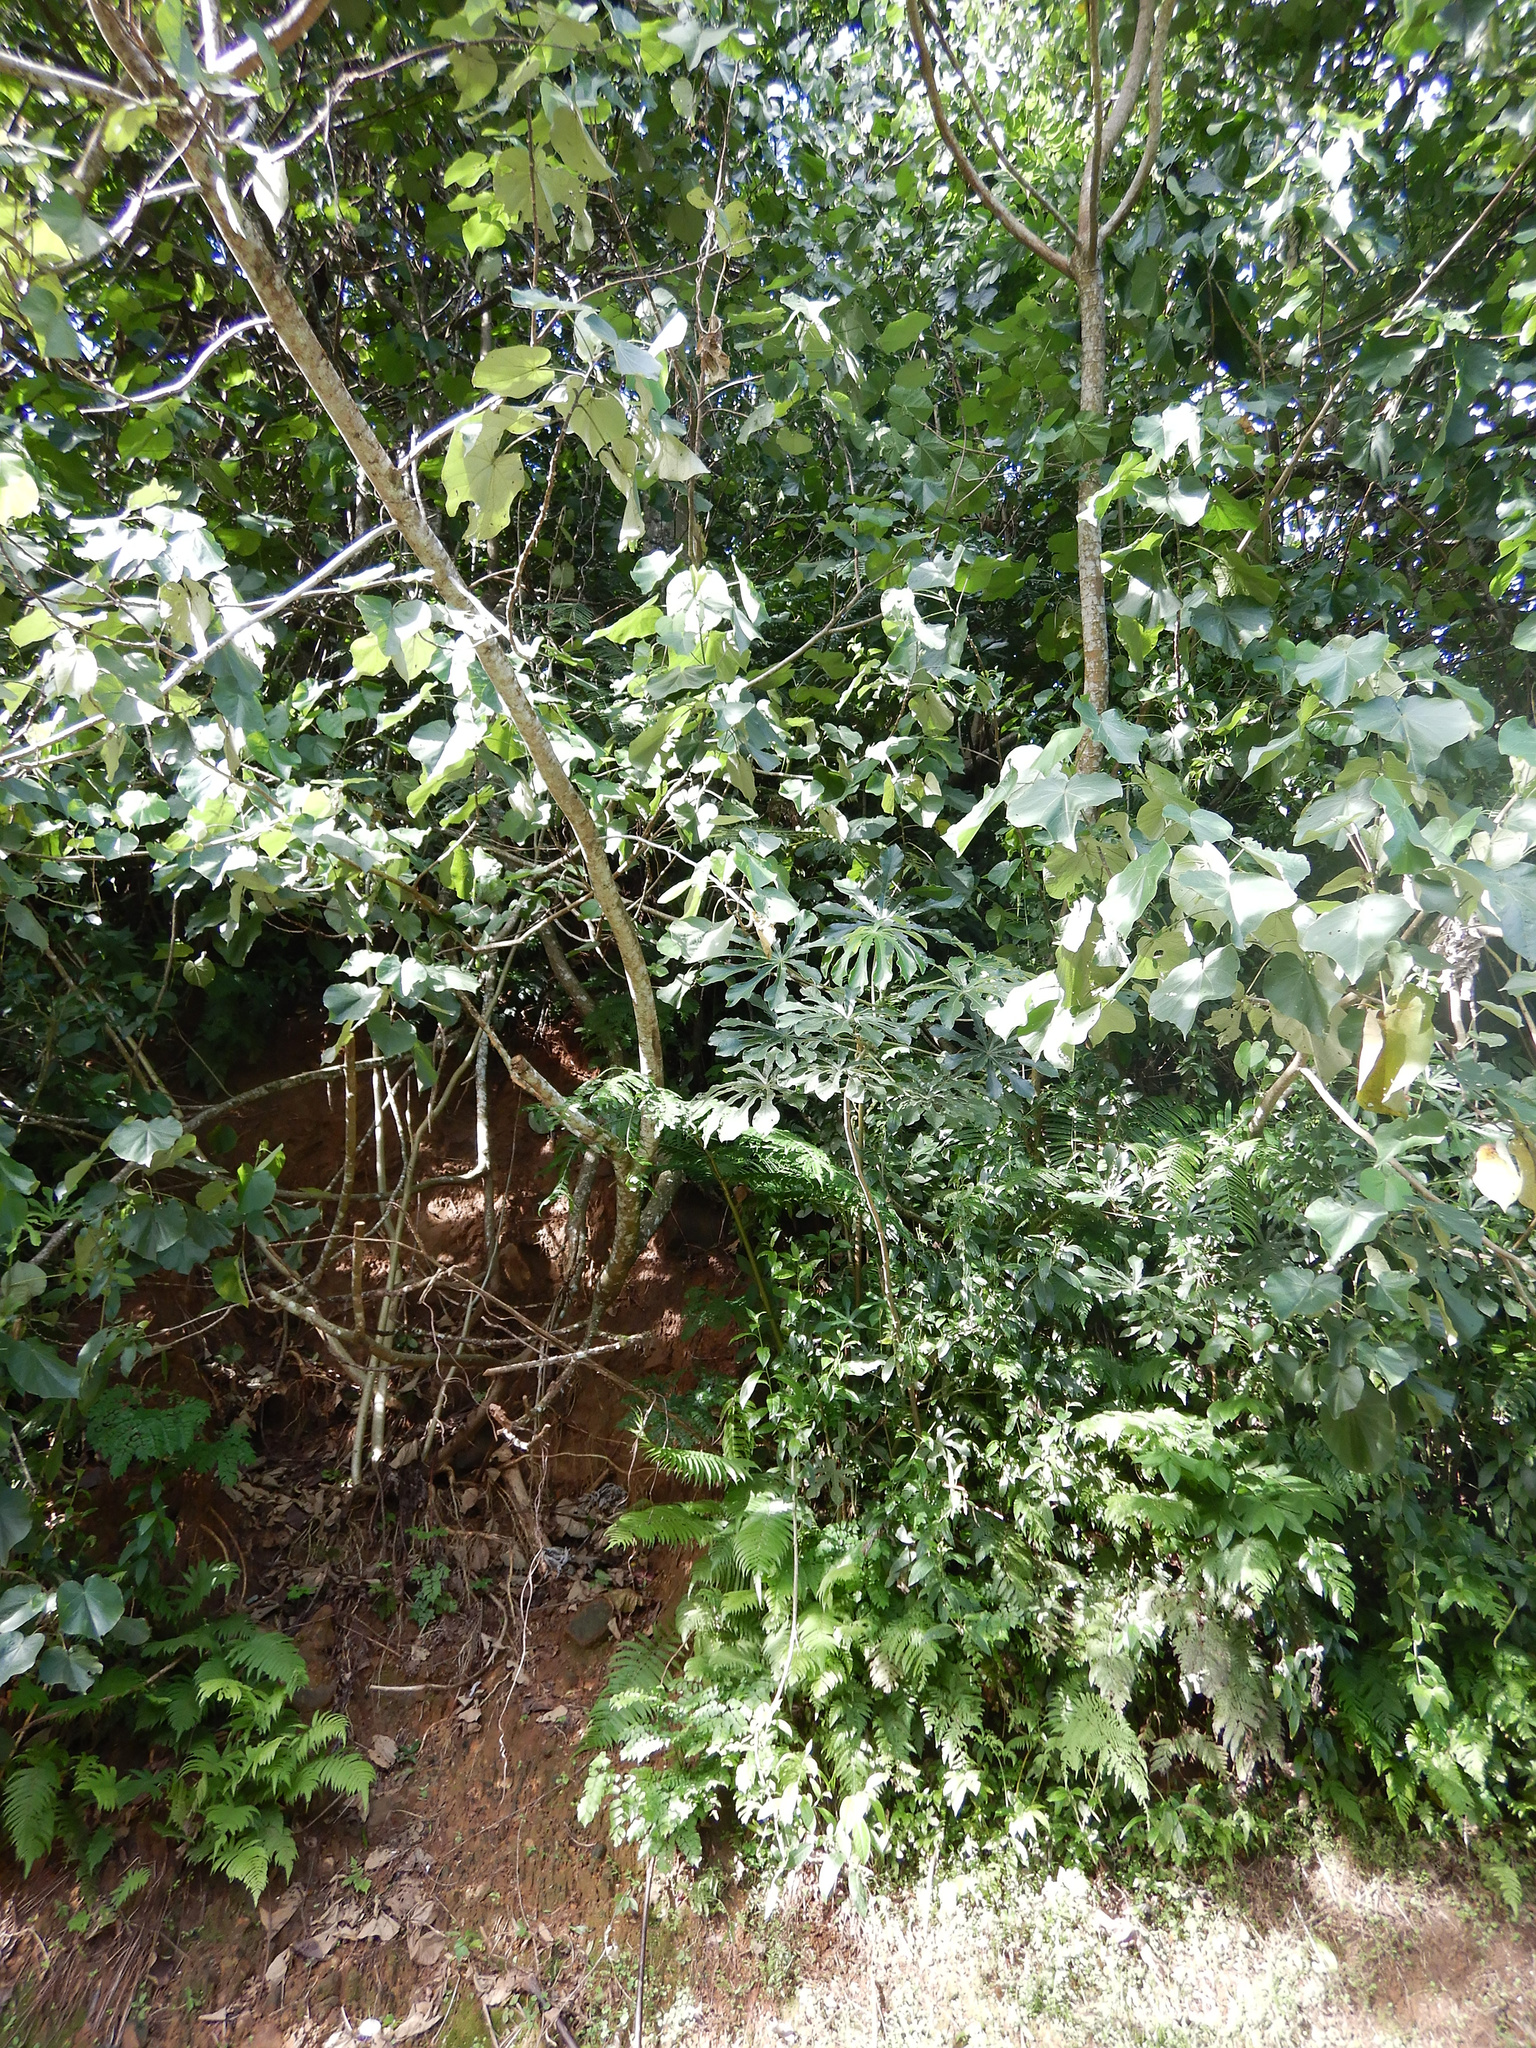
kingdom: Plantae
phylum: Tracheophyta
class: Magnoliopsida
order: Rosales
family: Urticaceae
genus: Cecropia
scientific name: Cecropia pachystachya
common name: Ambay pumpwood
